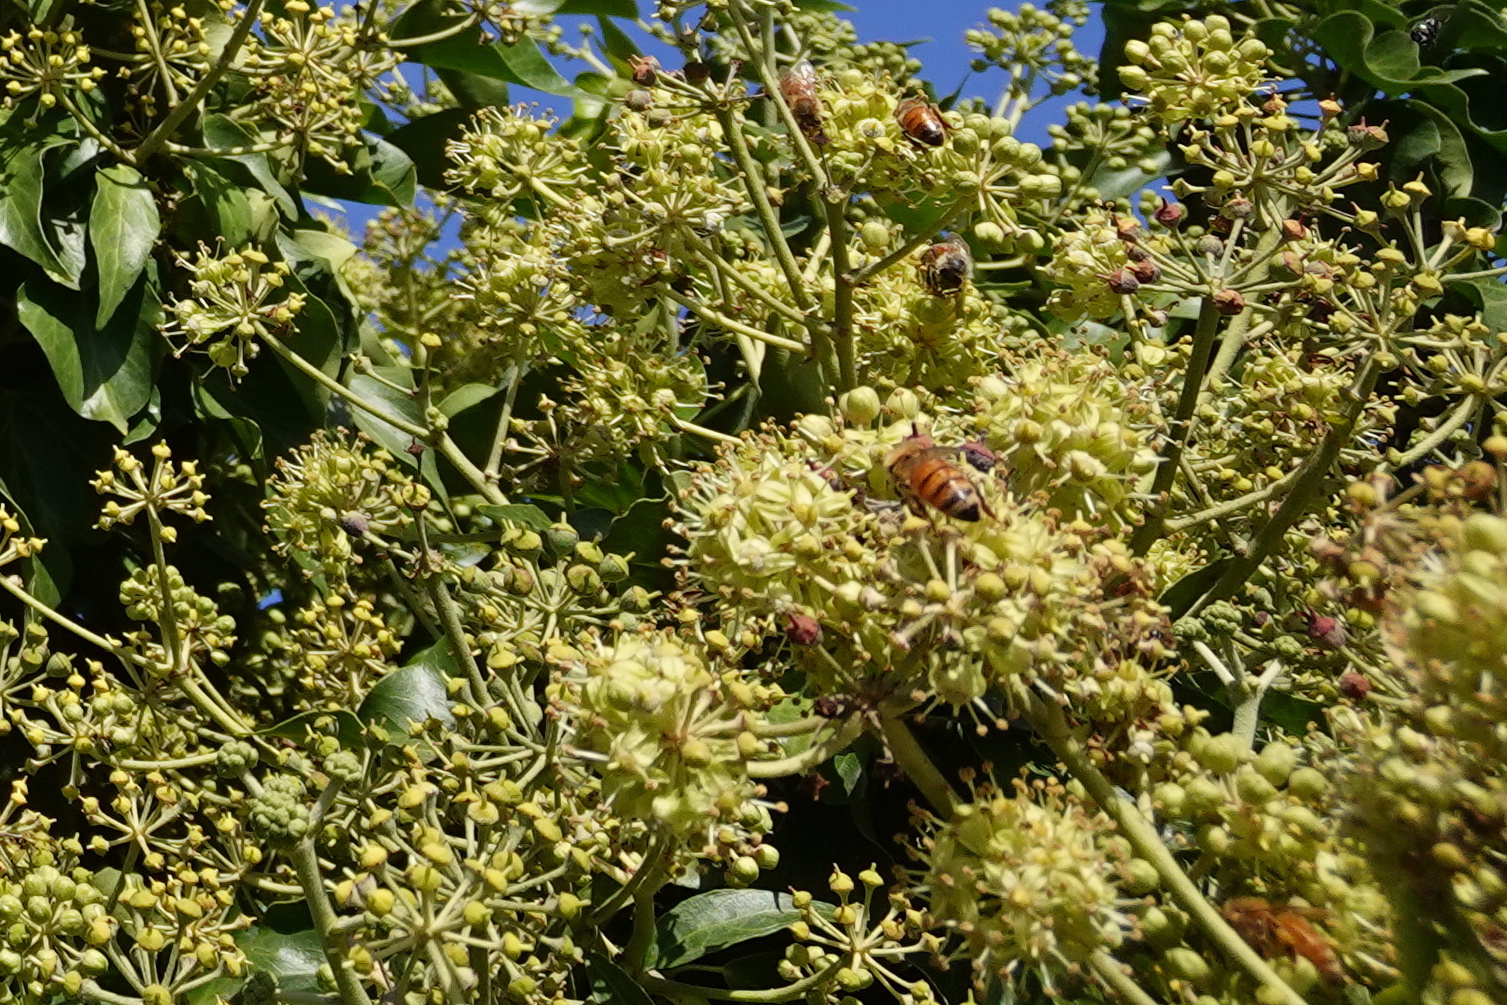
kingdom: Animalia
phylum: Arthropoda
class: Insecta
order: Hymenoptera
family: Apidae
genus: Apis
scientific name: Apis mellifera
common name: Honey bee
